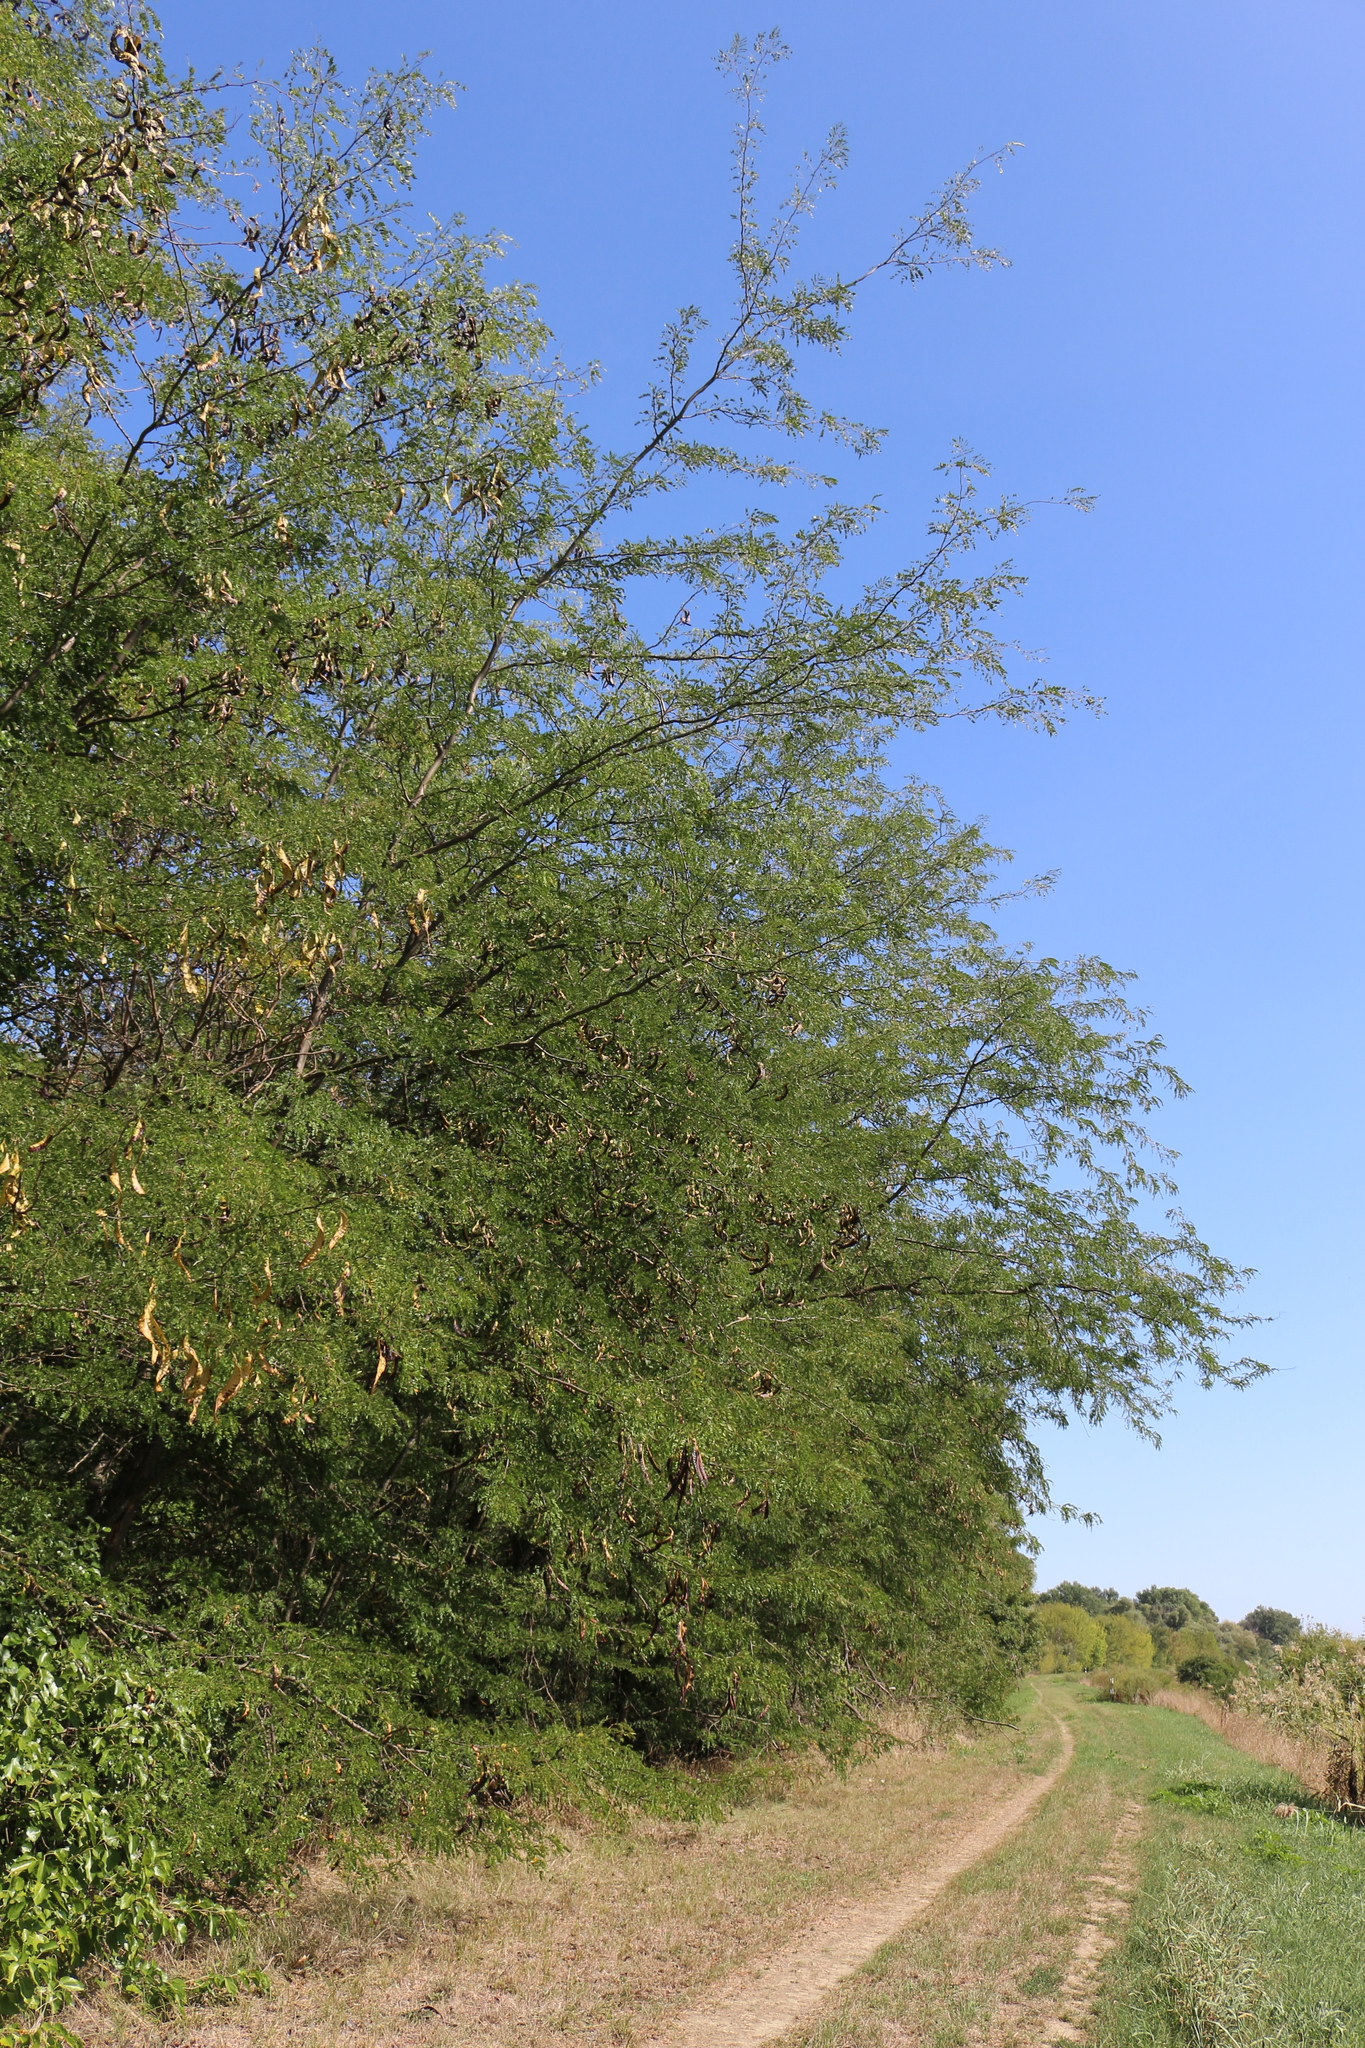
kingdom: Plantae
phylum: Tracheophyta
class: Magnoliopsida
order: Fabales
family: Fabaceae
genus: Gleditsia
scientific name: Gleditsia triacanthos
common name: Common honeylocust
